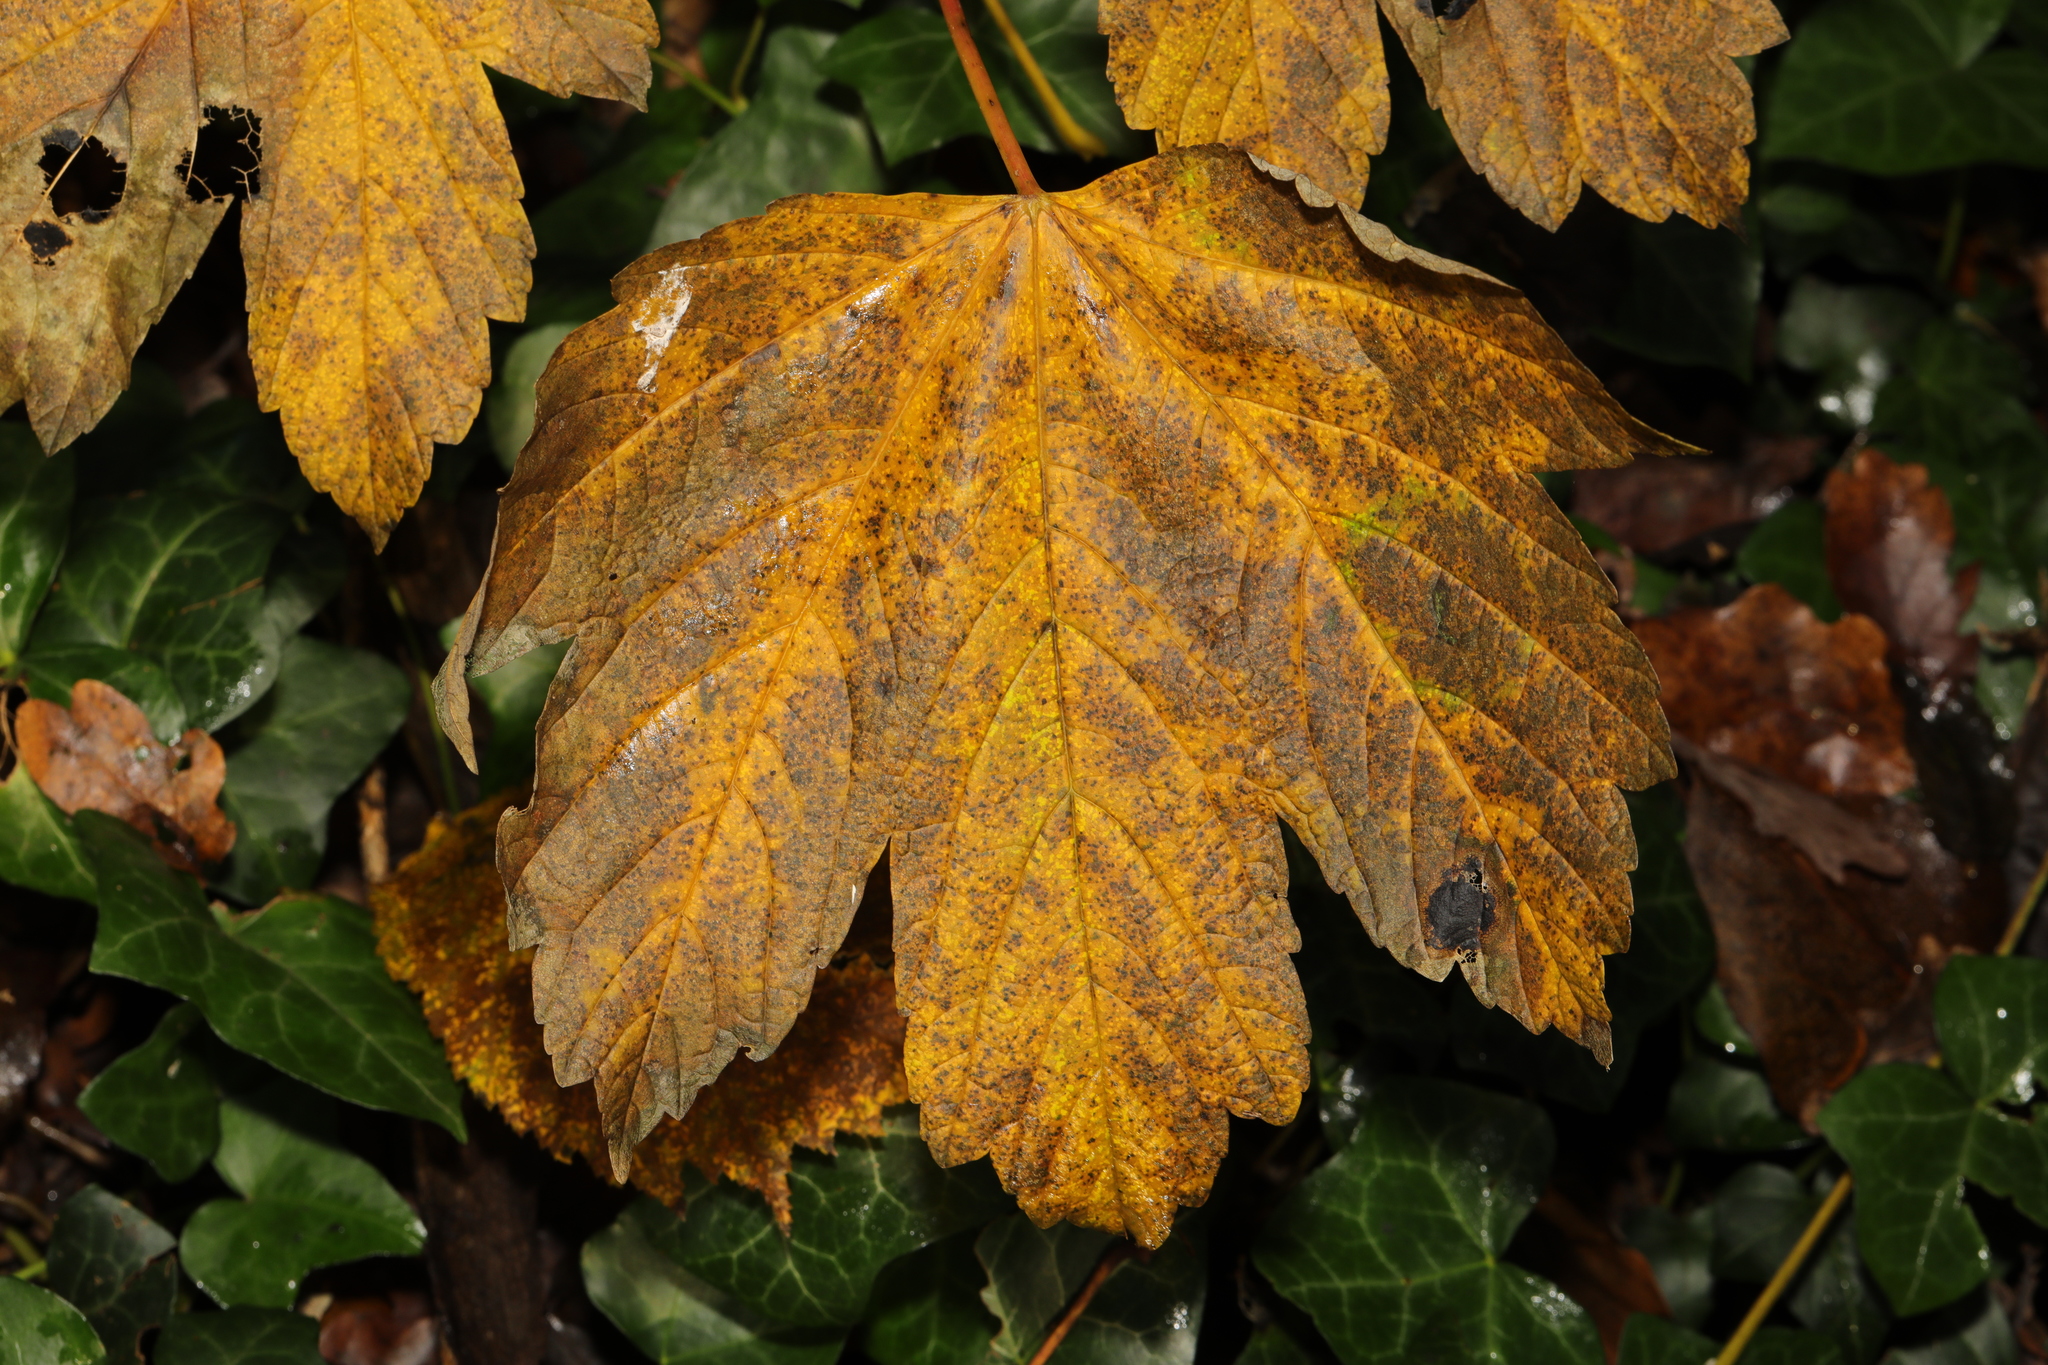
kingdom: Plantae
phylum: Tracheophyta
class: Magnoliopsida
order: Sapindales
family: Sapindaceae
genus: Acer
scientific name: Acer pseudoplatanus
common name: Sycamore
